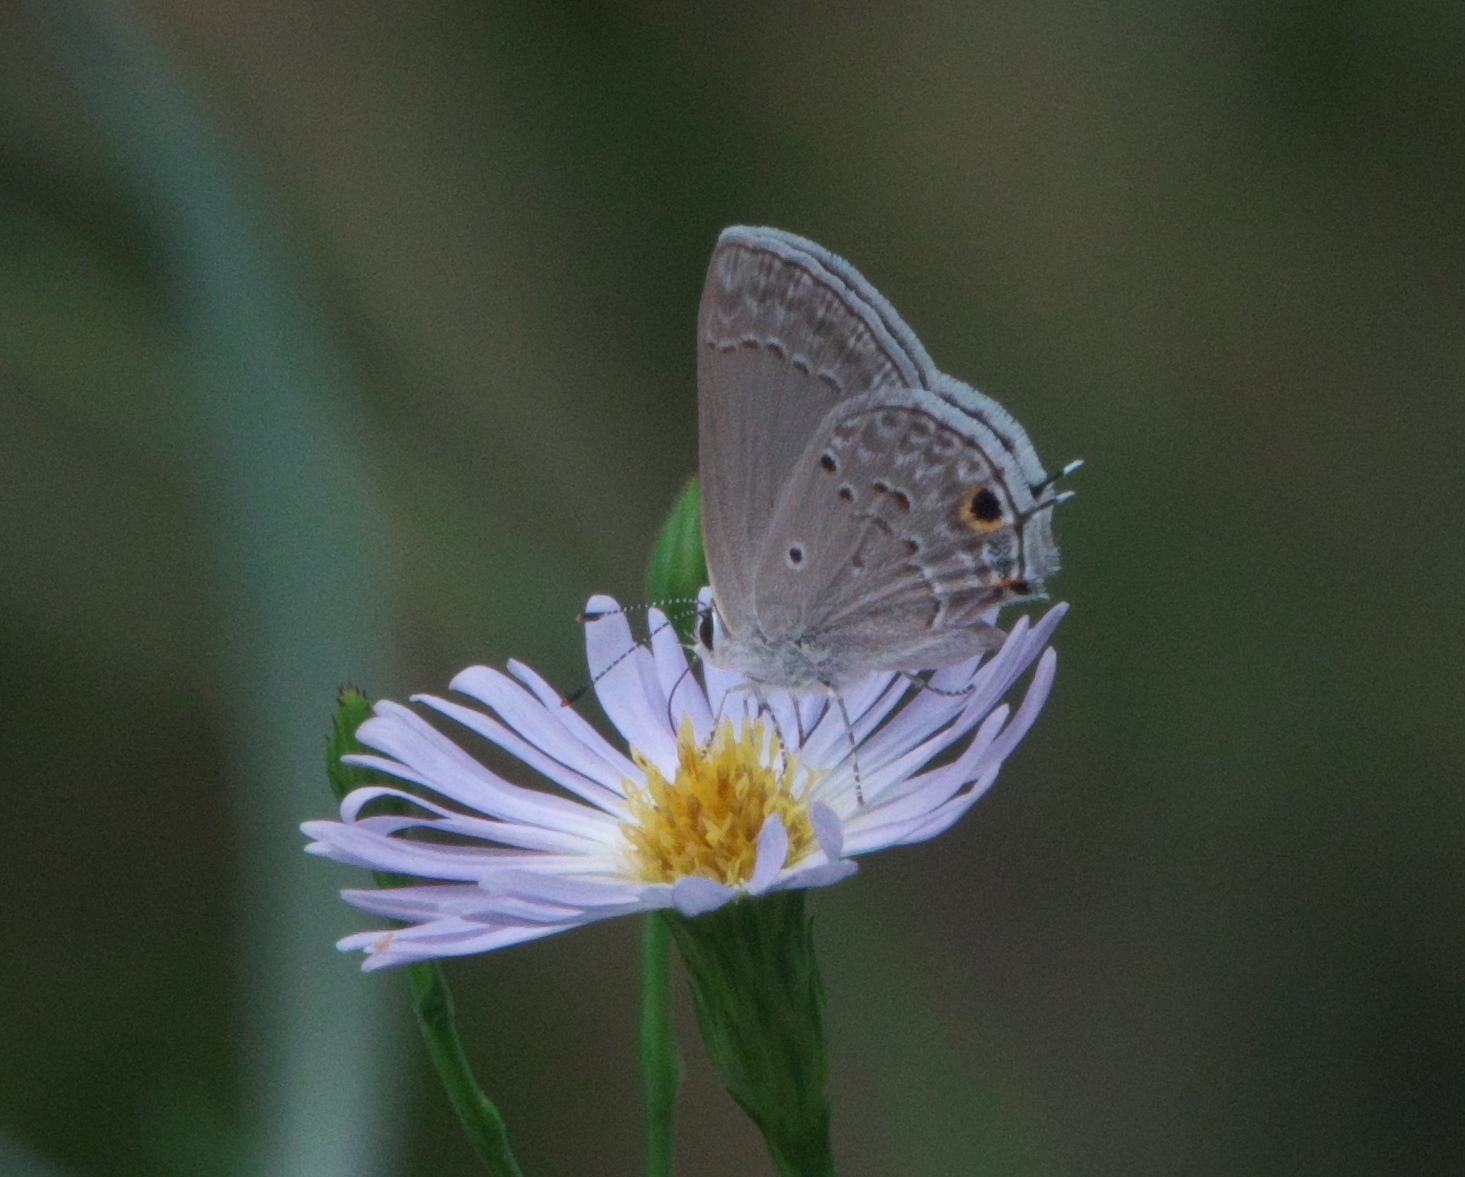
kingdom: Animalia
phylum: Arthropoda
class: Insecta
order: Lepidoptera
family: Lycaenidae
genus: Callicista
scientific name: Callicista columella
